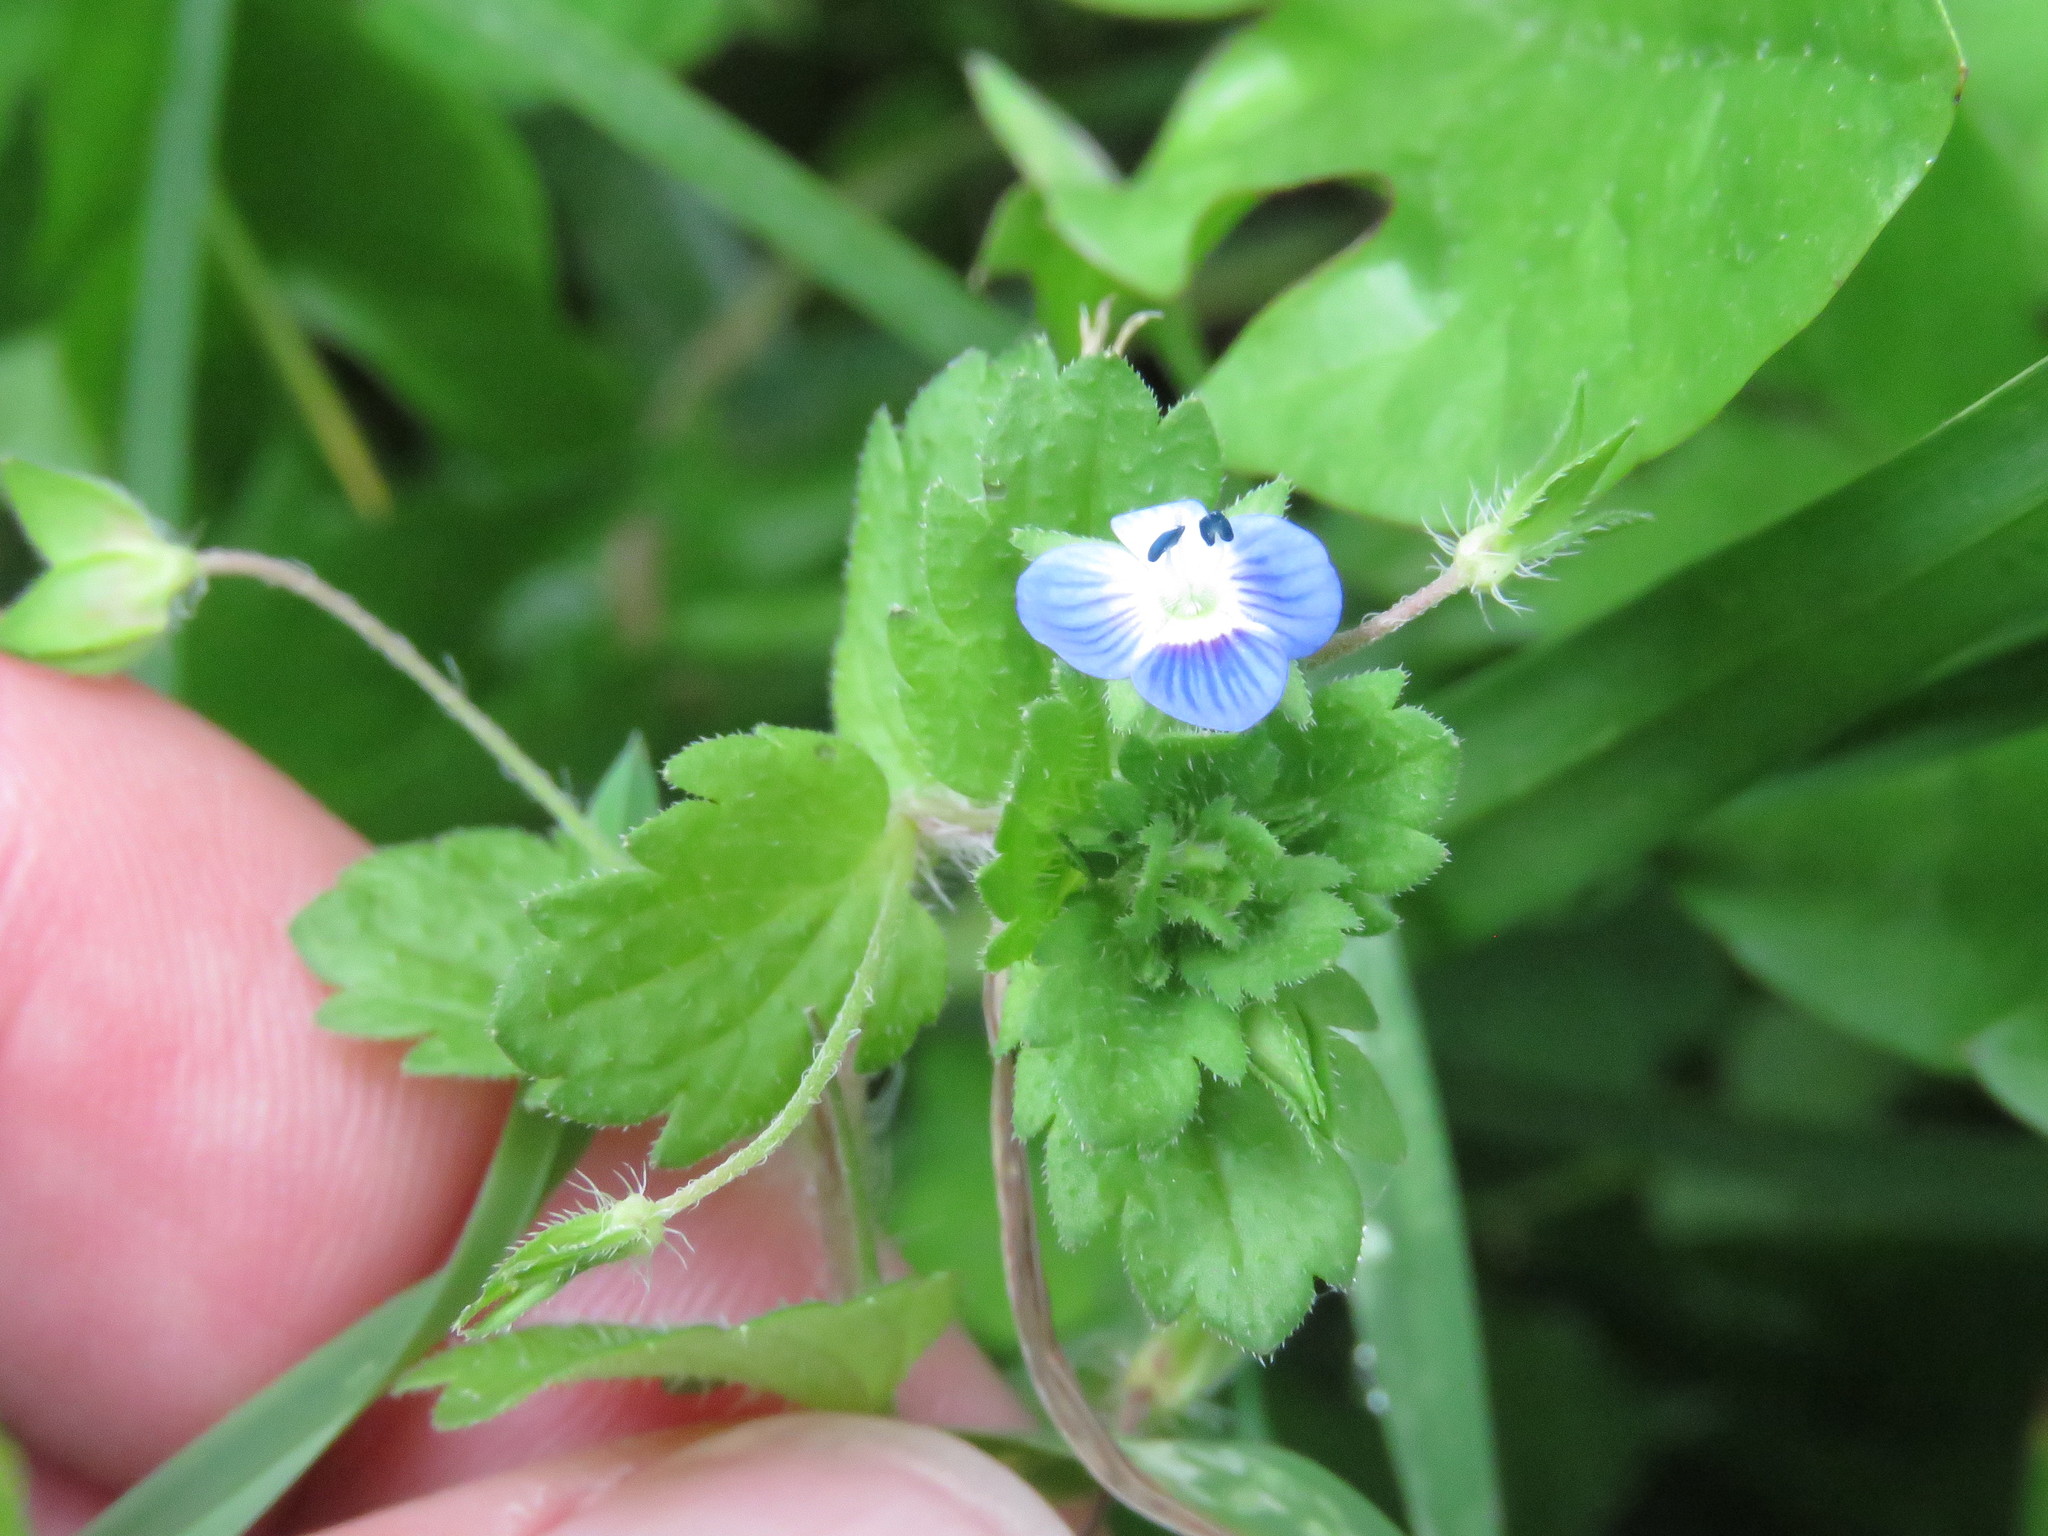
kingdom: Plantae
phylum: Tracheophyta
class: Magnoliopsida
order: Lamiales
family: Plantaginaceae
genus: Veronica
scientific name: Veronica persica
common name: Common field-speedwell
